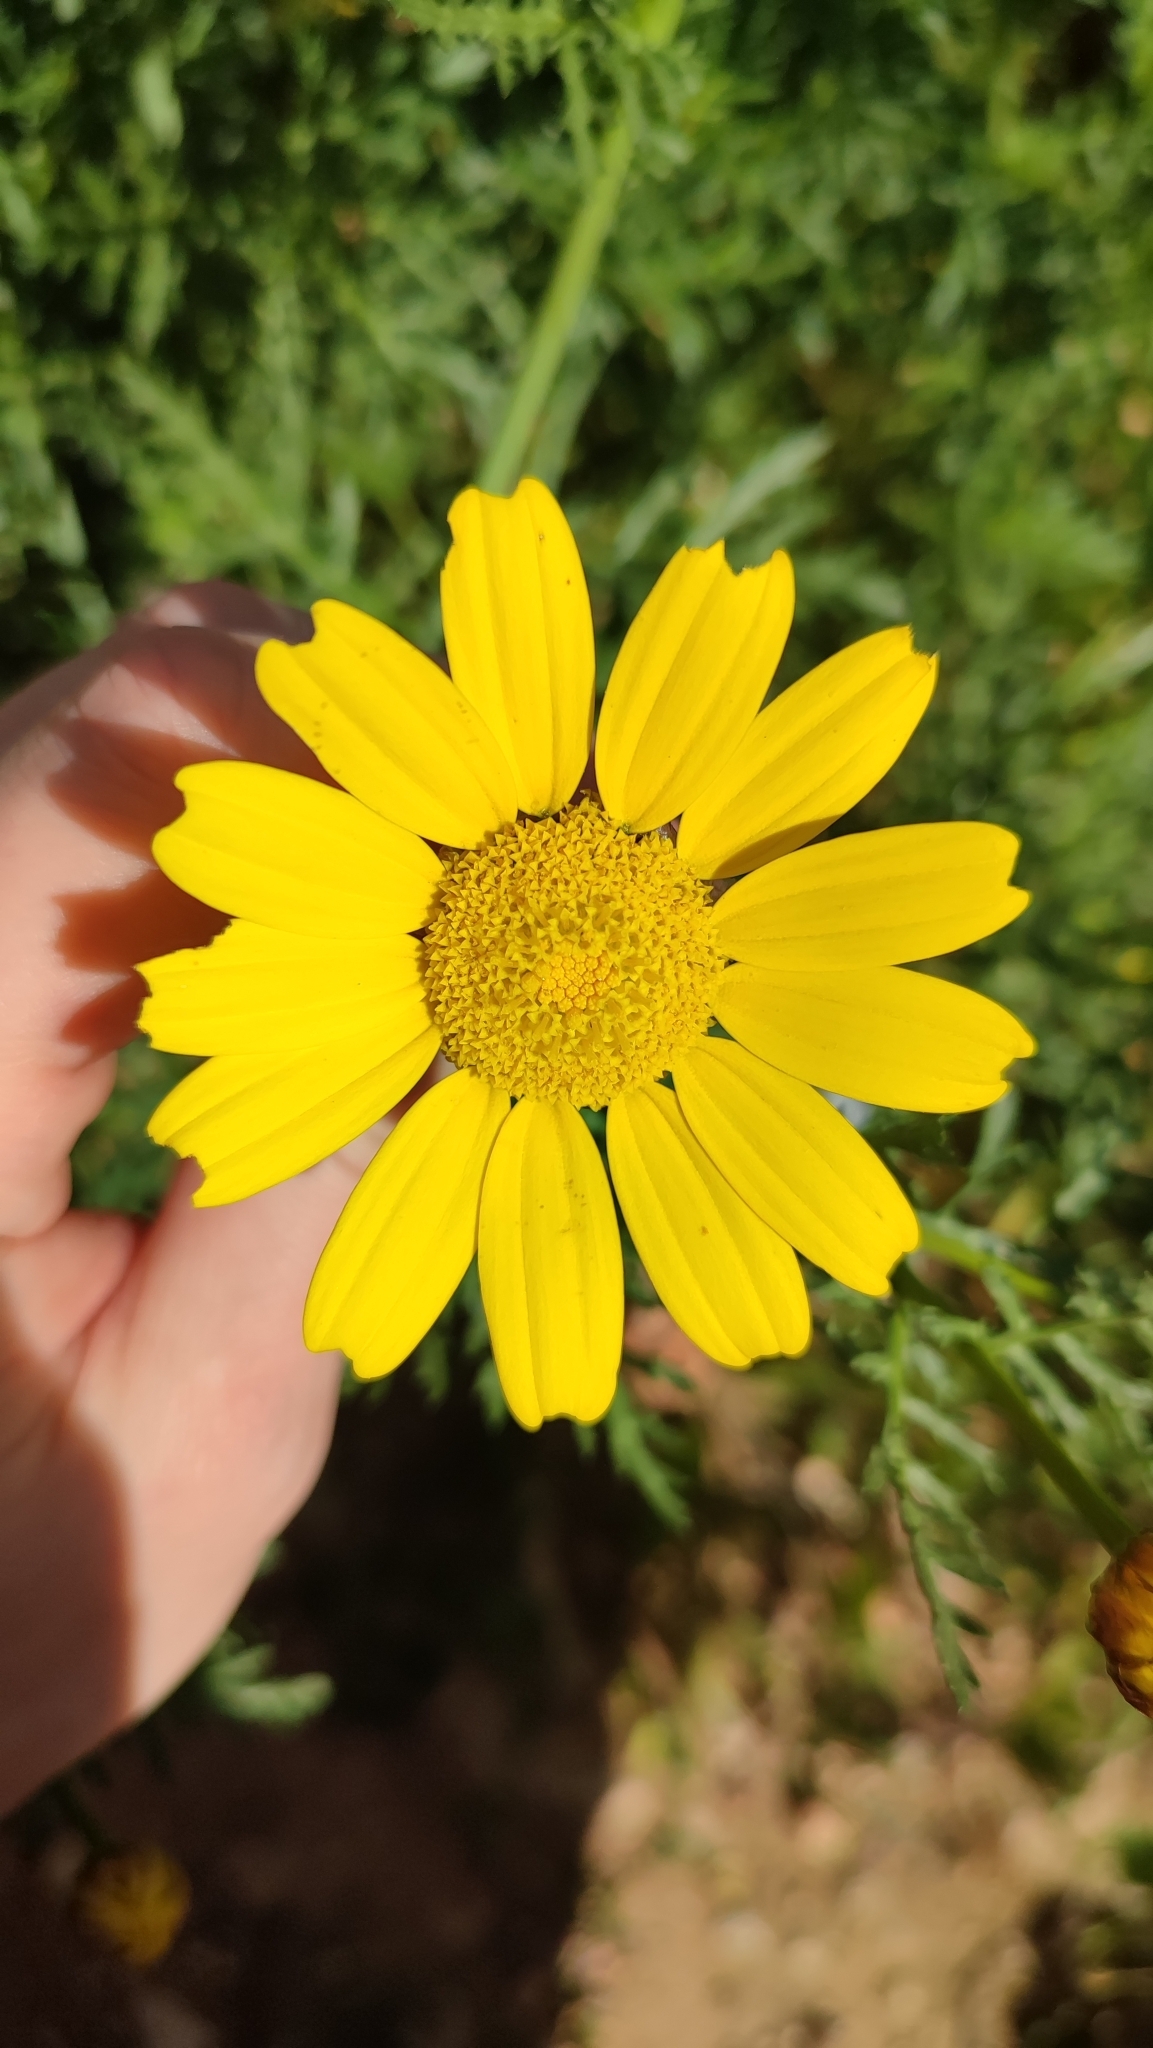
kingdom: Plantae
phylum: Tracheophyta
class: Magnoliopsida
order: Asterales
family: Asteraceae
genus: Glebionis
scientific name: Glebionis coronaria
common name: Crowndaisy
